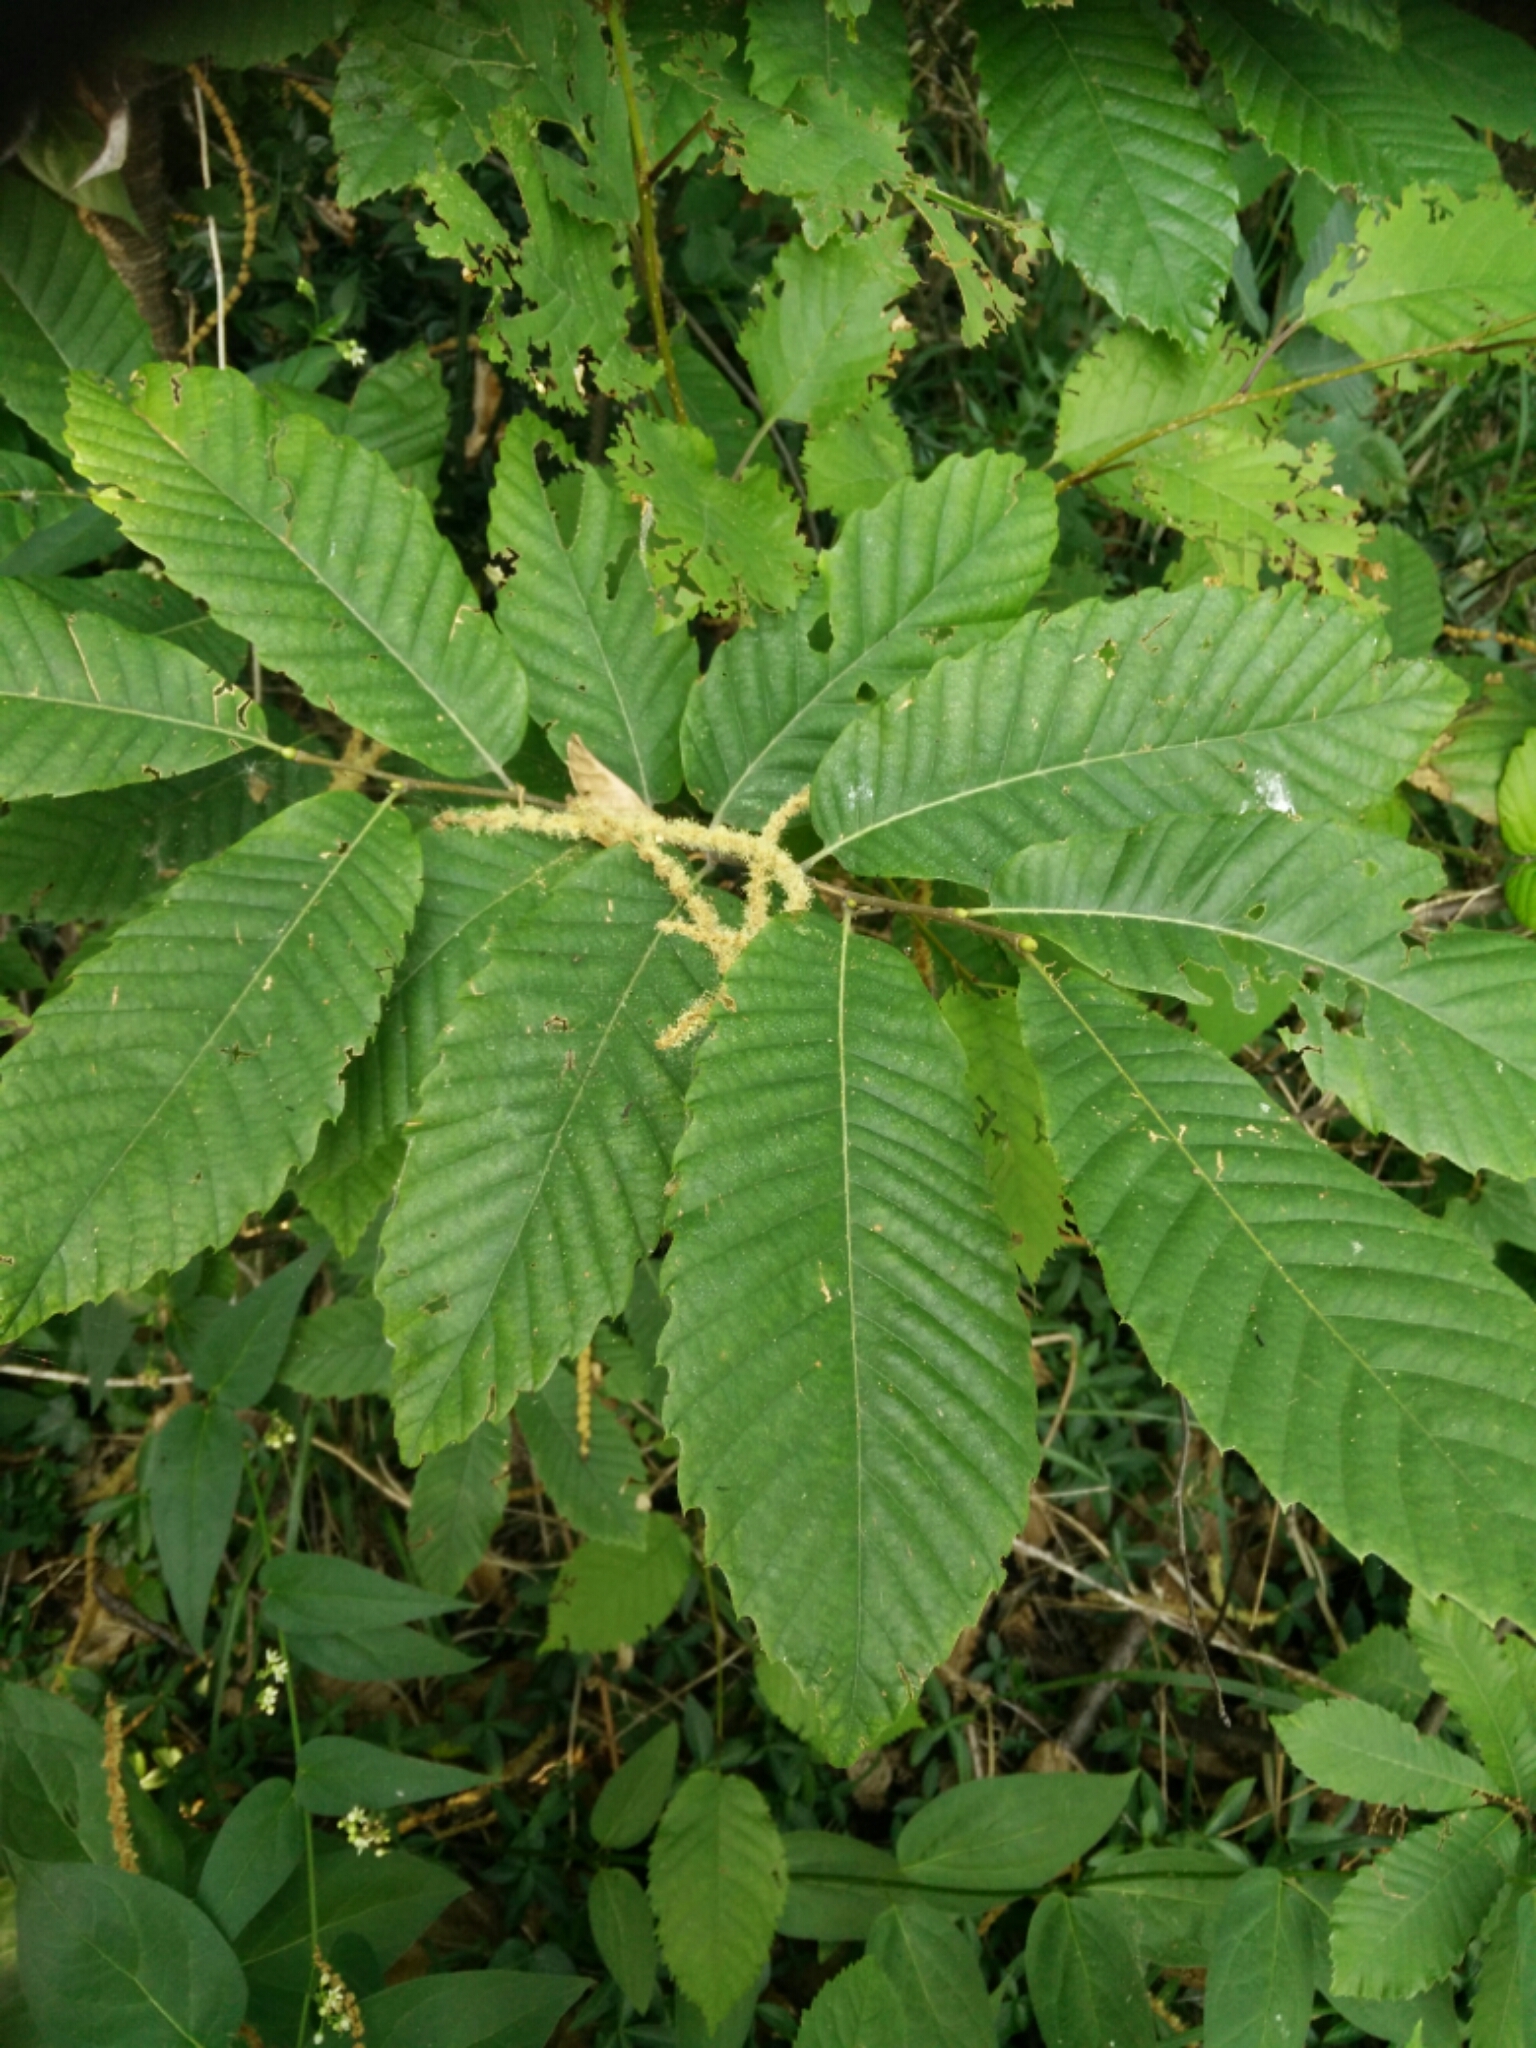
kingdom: Plantae
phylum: Tracheophyta
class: Magnoliopsida
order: Fagales
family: Fagaceae
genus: Castanea
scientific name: Castanea sativa
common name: Sweet chestnut
